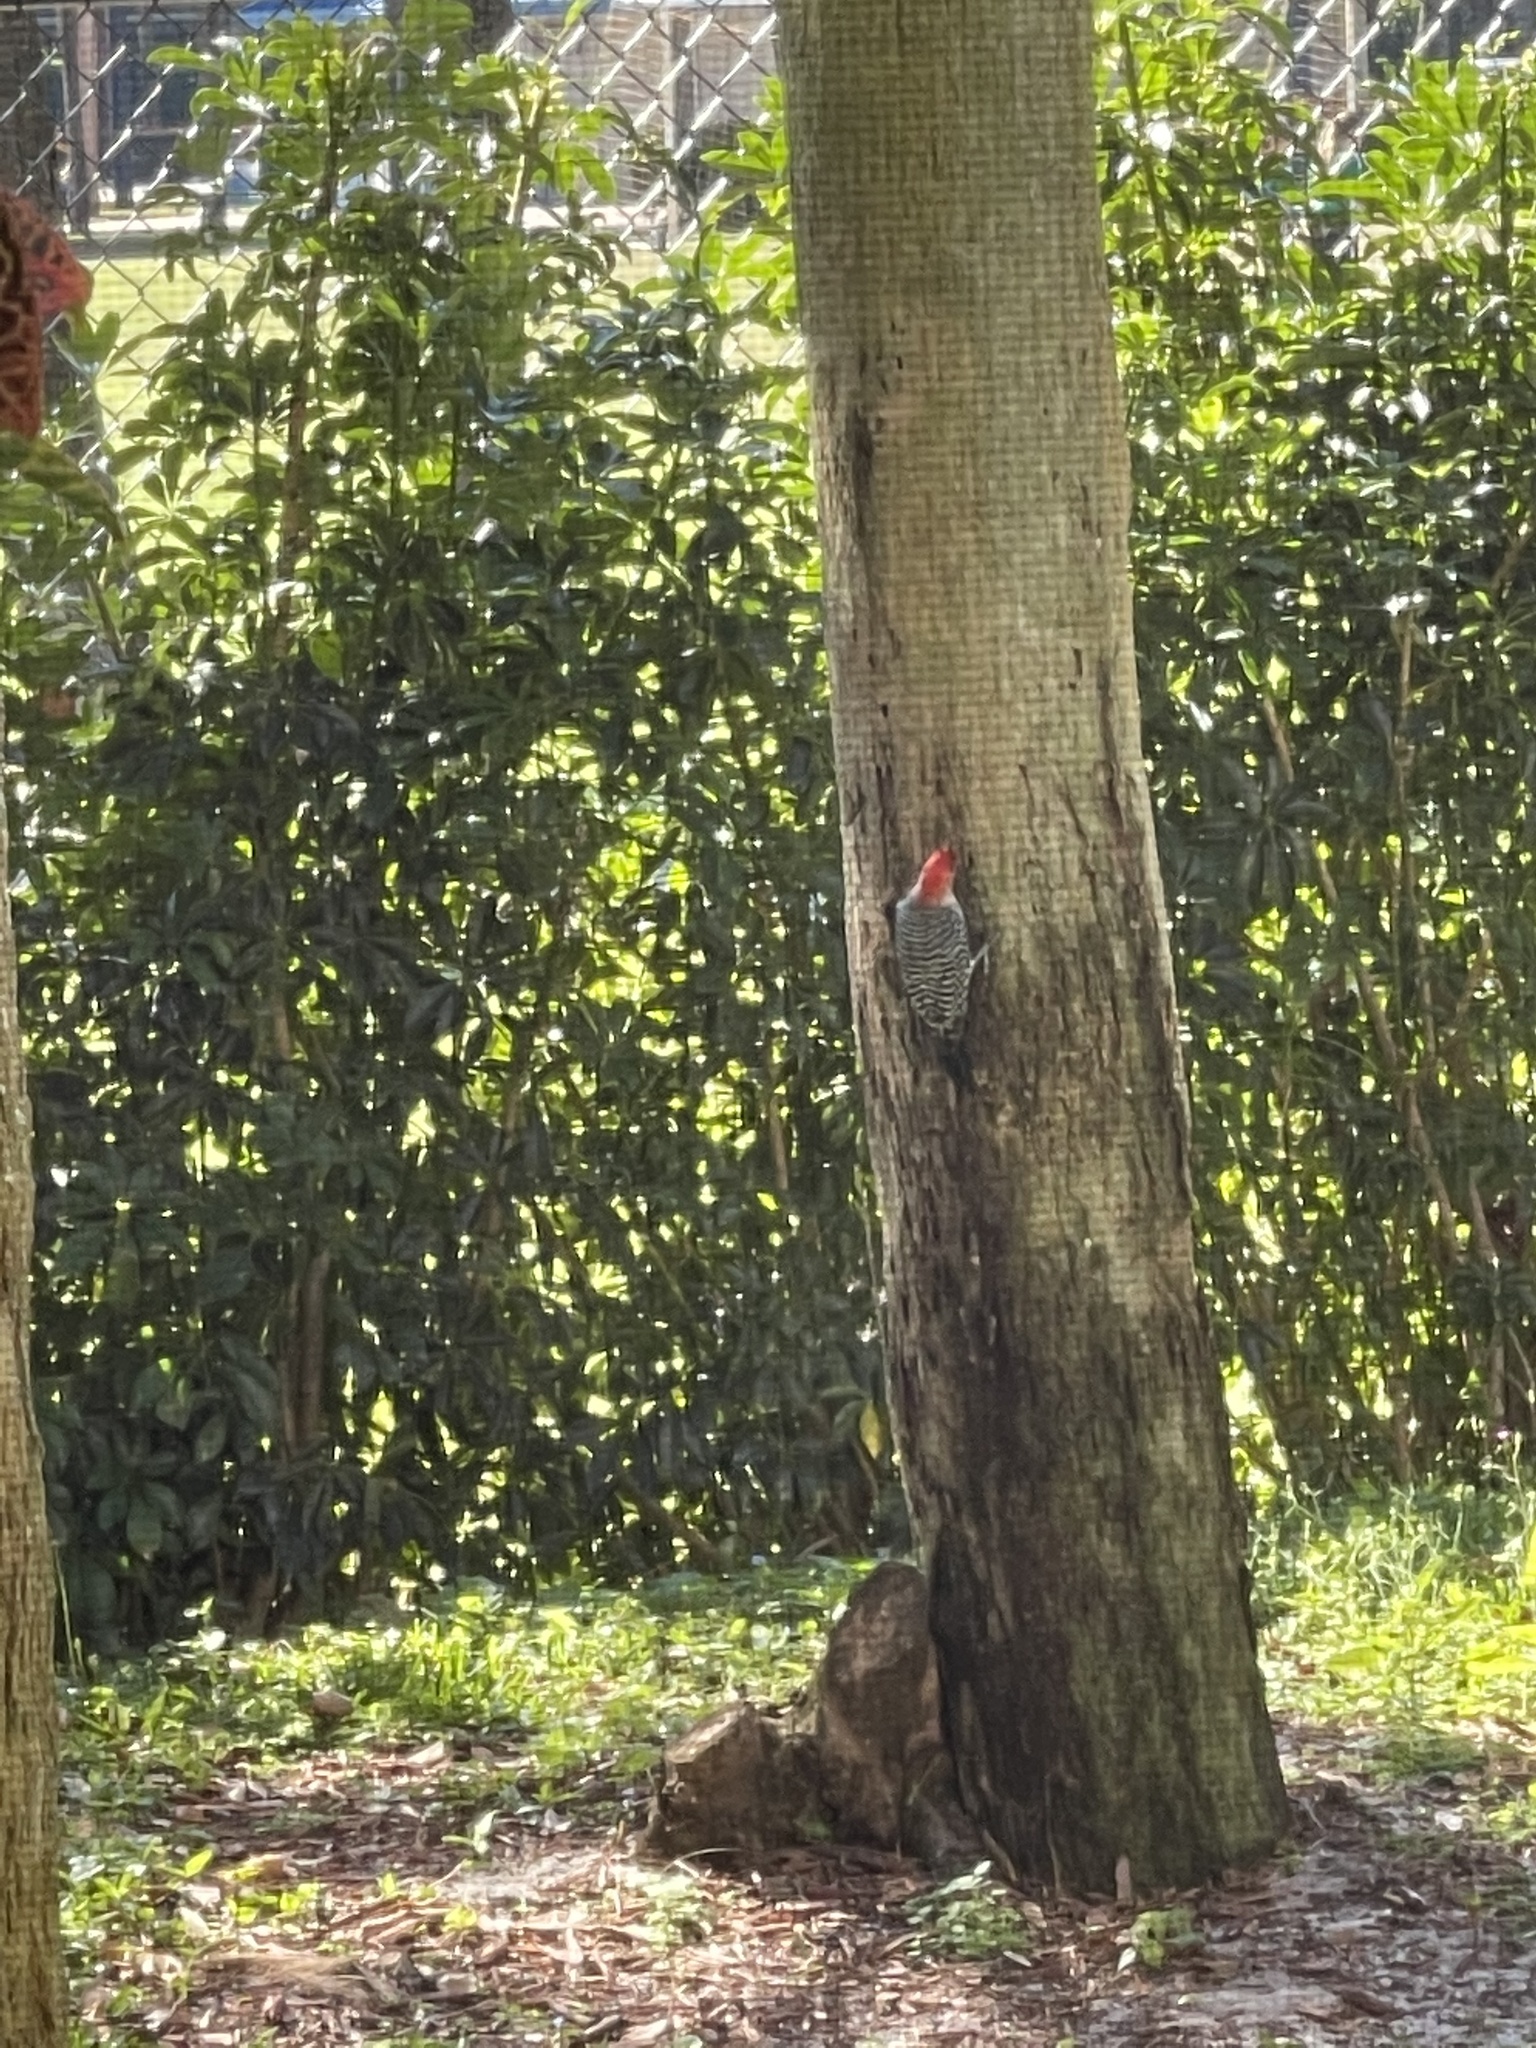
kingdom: Animalia
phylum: Chordata
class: Aves
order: Piciformes
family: Picidae
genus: Melanerpes
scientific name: Melanerpes carolinus
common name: Red-bellied woodpecker
